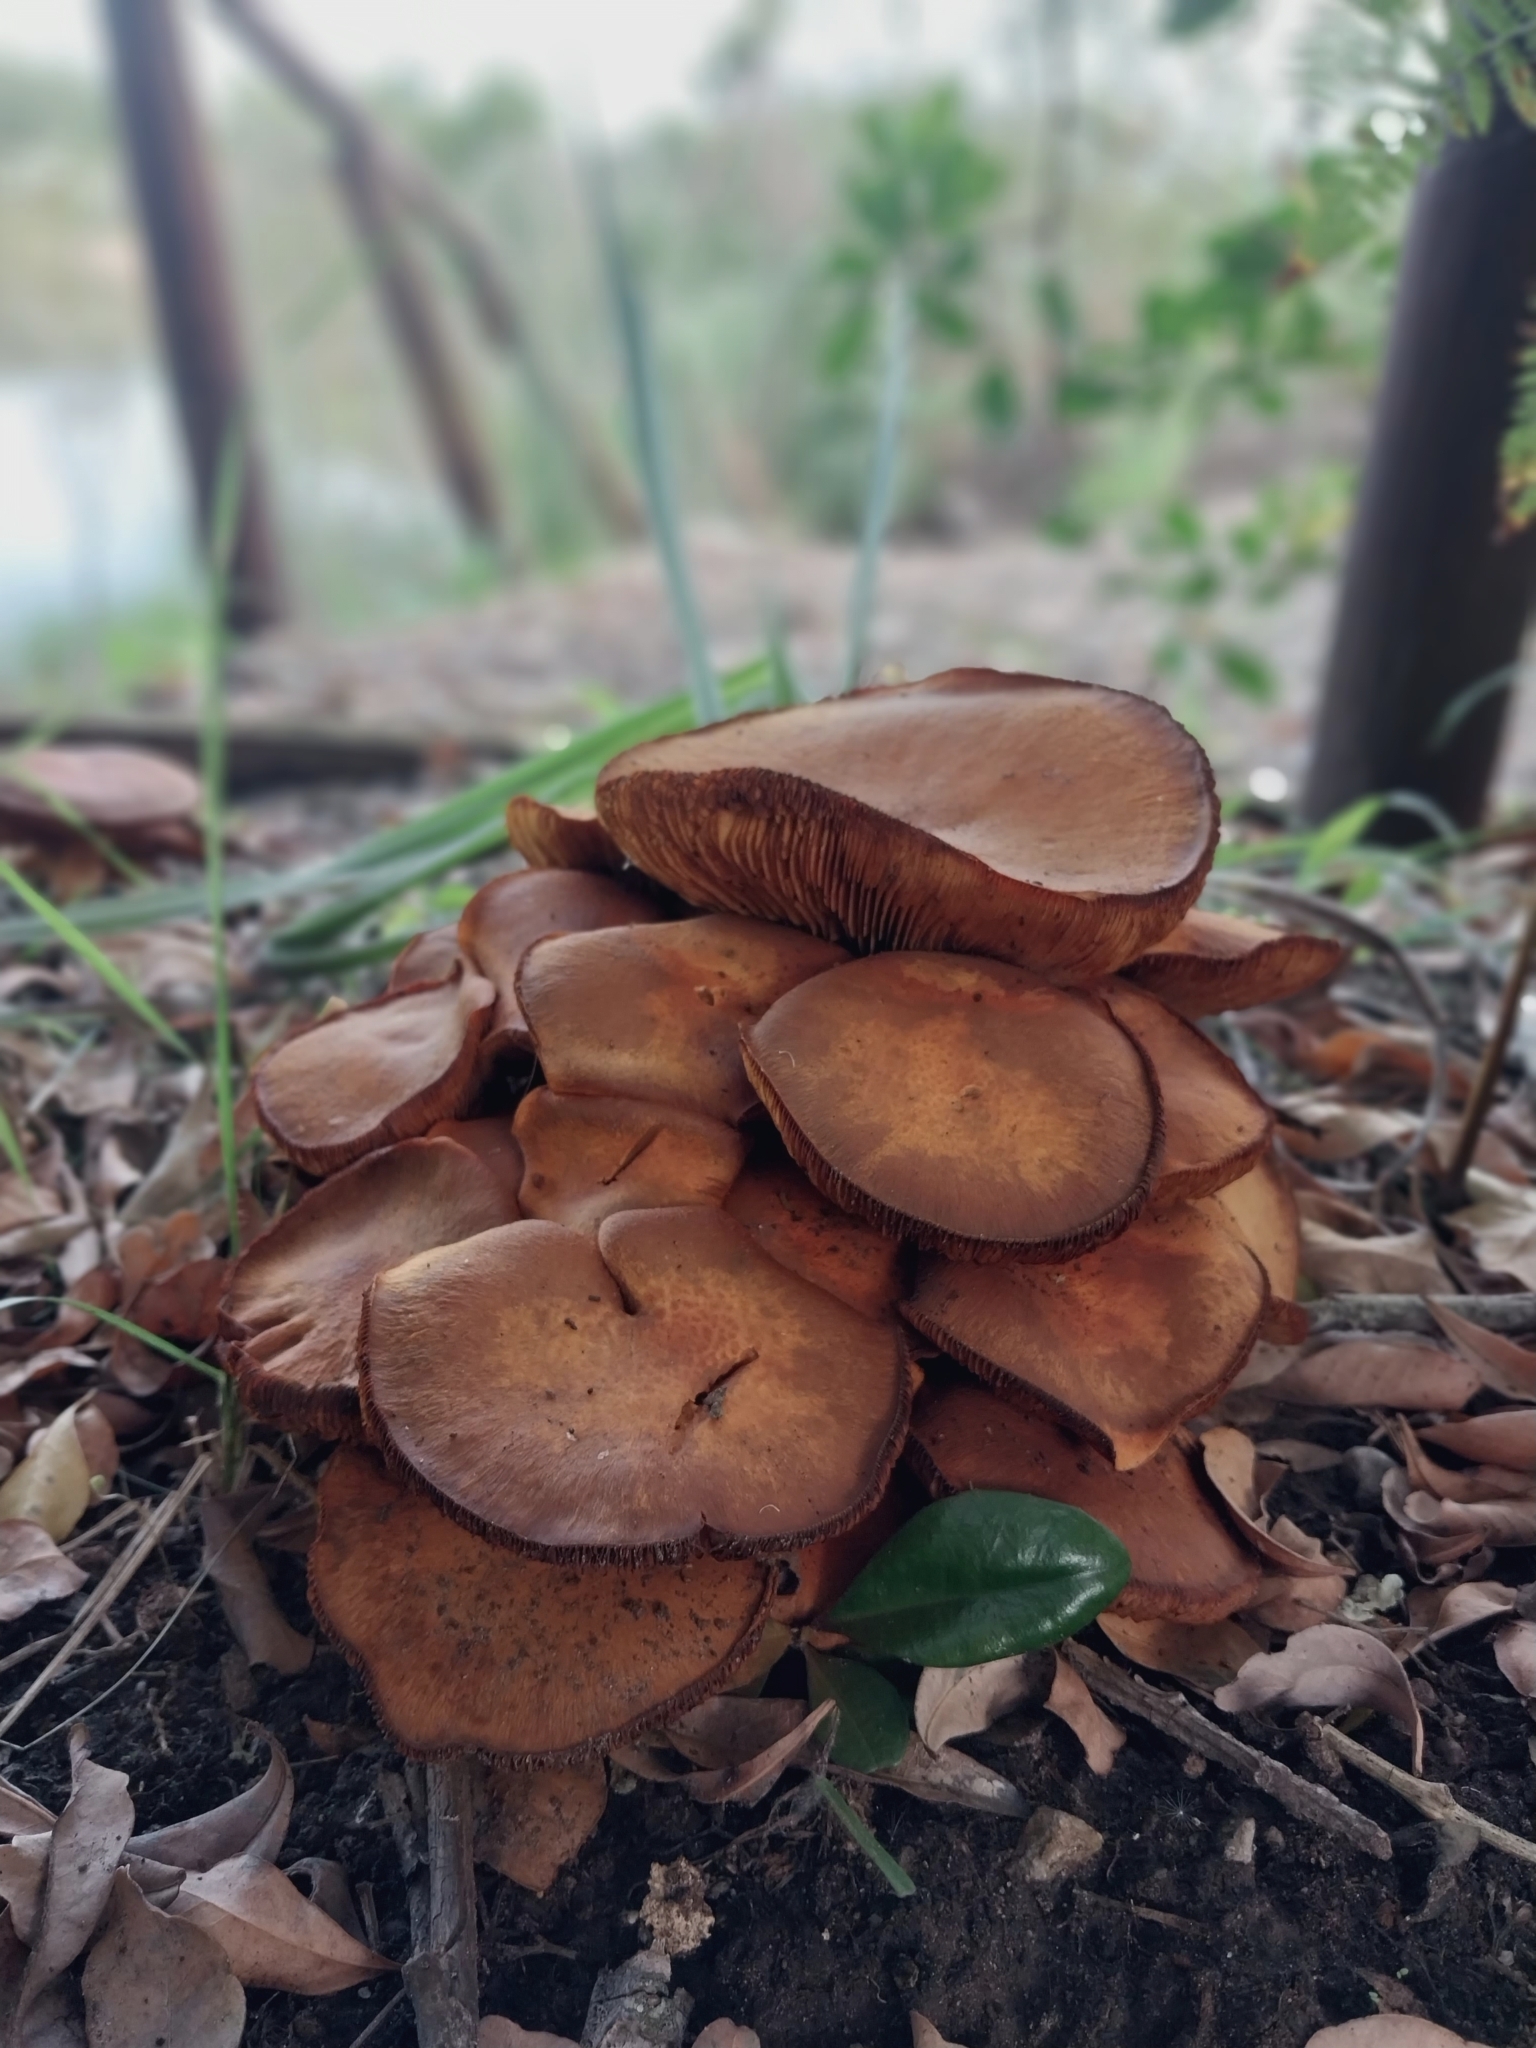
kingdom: Fungi
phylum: Basidiomycota
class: Agaricomycetes
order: Agaricales
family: Hymenogastraceae
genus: Gymnopilus
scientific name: Gymnopilus junonius
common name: Spectacular rustgill
